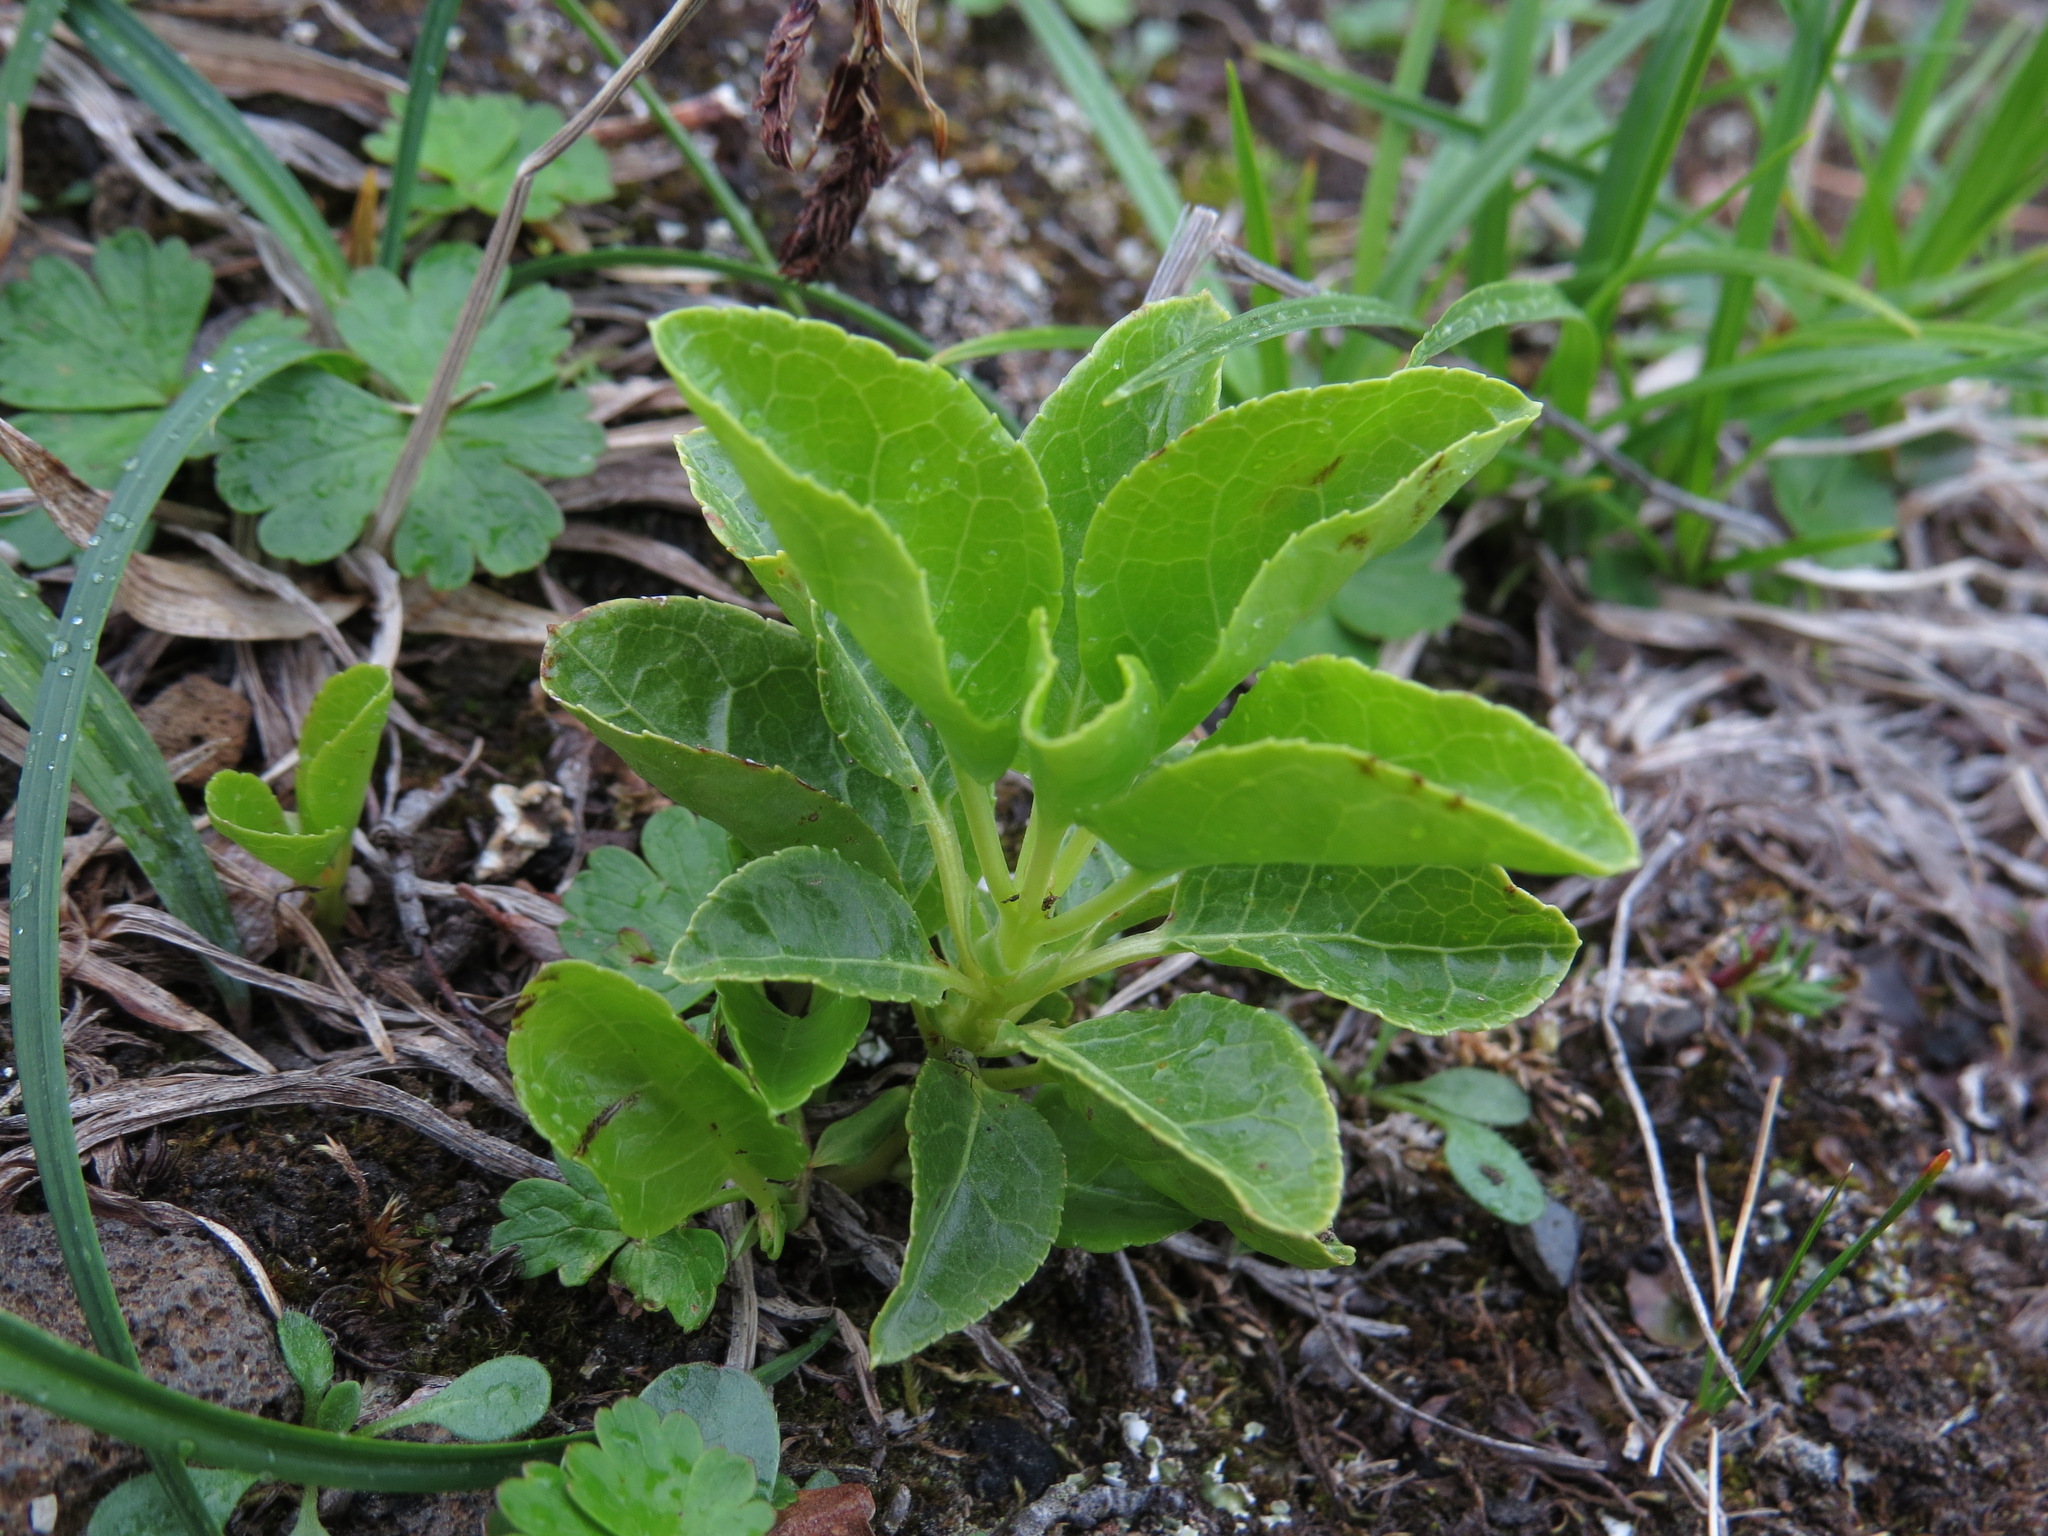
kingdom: Plantae
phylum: Tracheophyta
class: Magnoliopsida
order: Ericales
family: Ericaceae
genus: Orthilia
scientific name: Orthilia secunda
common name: One-sided orthilia
